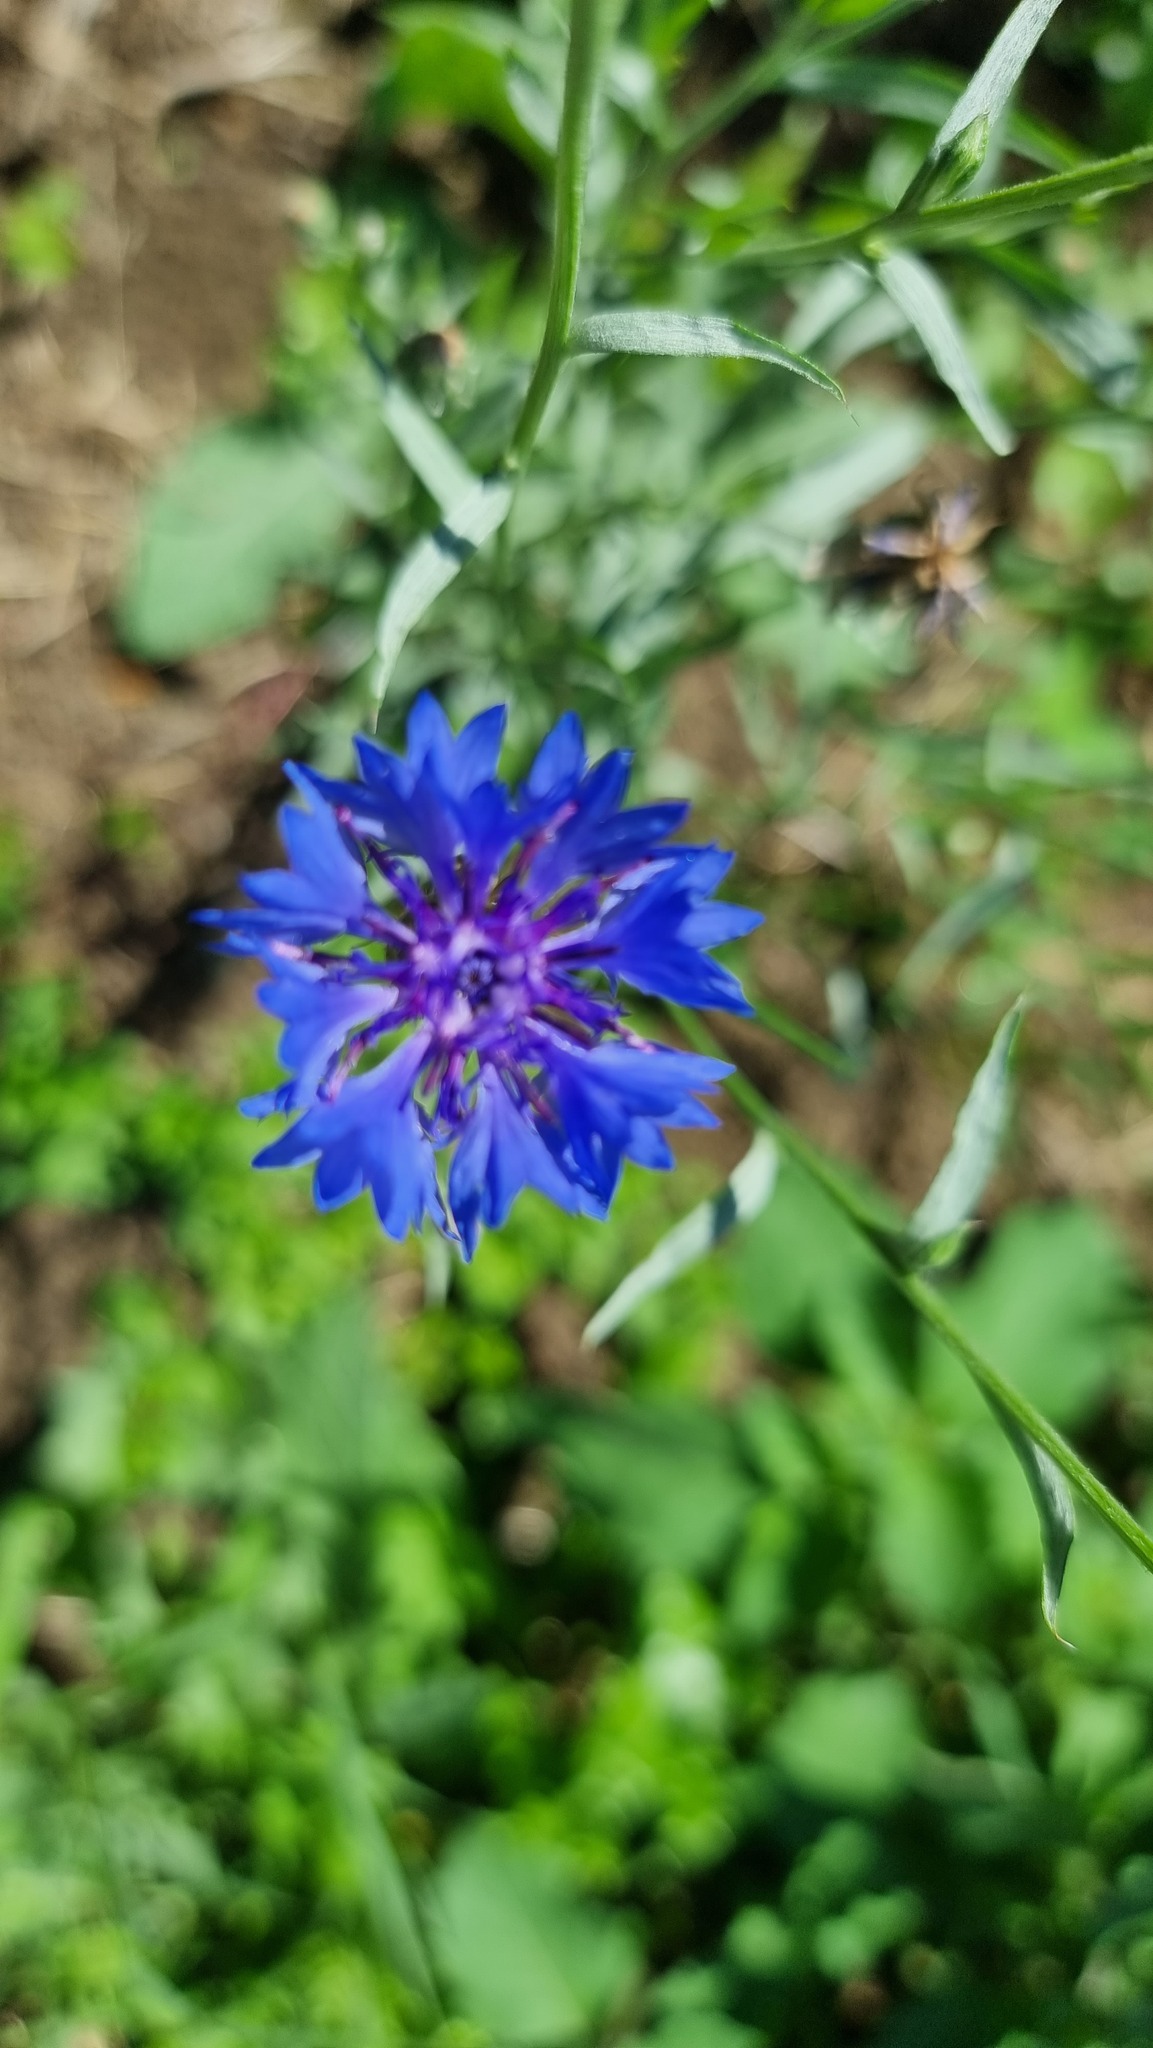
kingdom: Plantae
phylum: Tracheophyta
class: Magnoliopsida
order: Asterales
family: Asteraceae
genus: Centaurea
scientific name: Centaurea cyanus
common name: Cornflower
